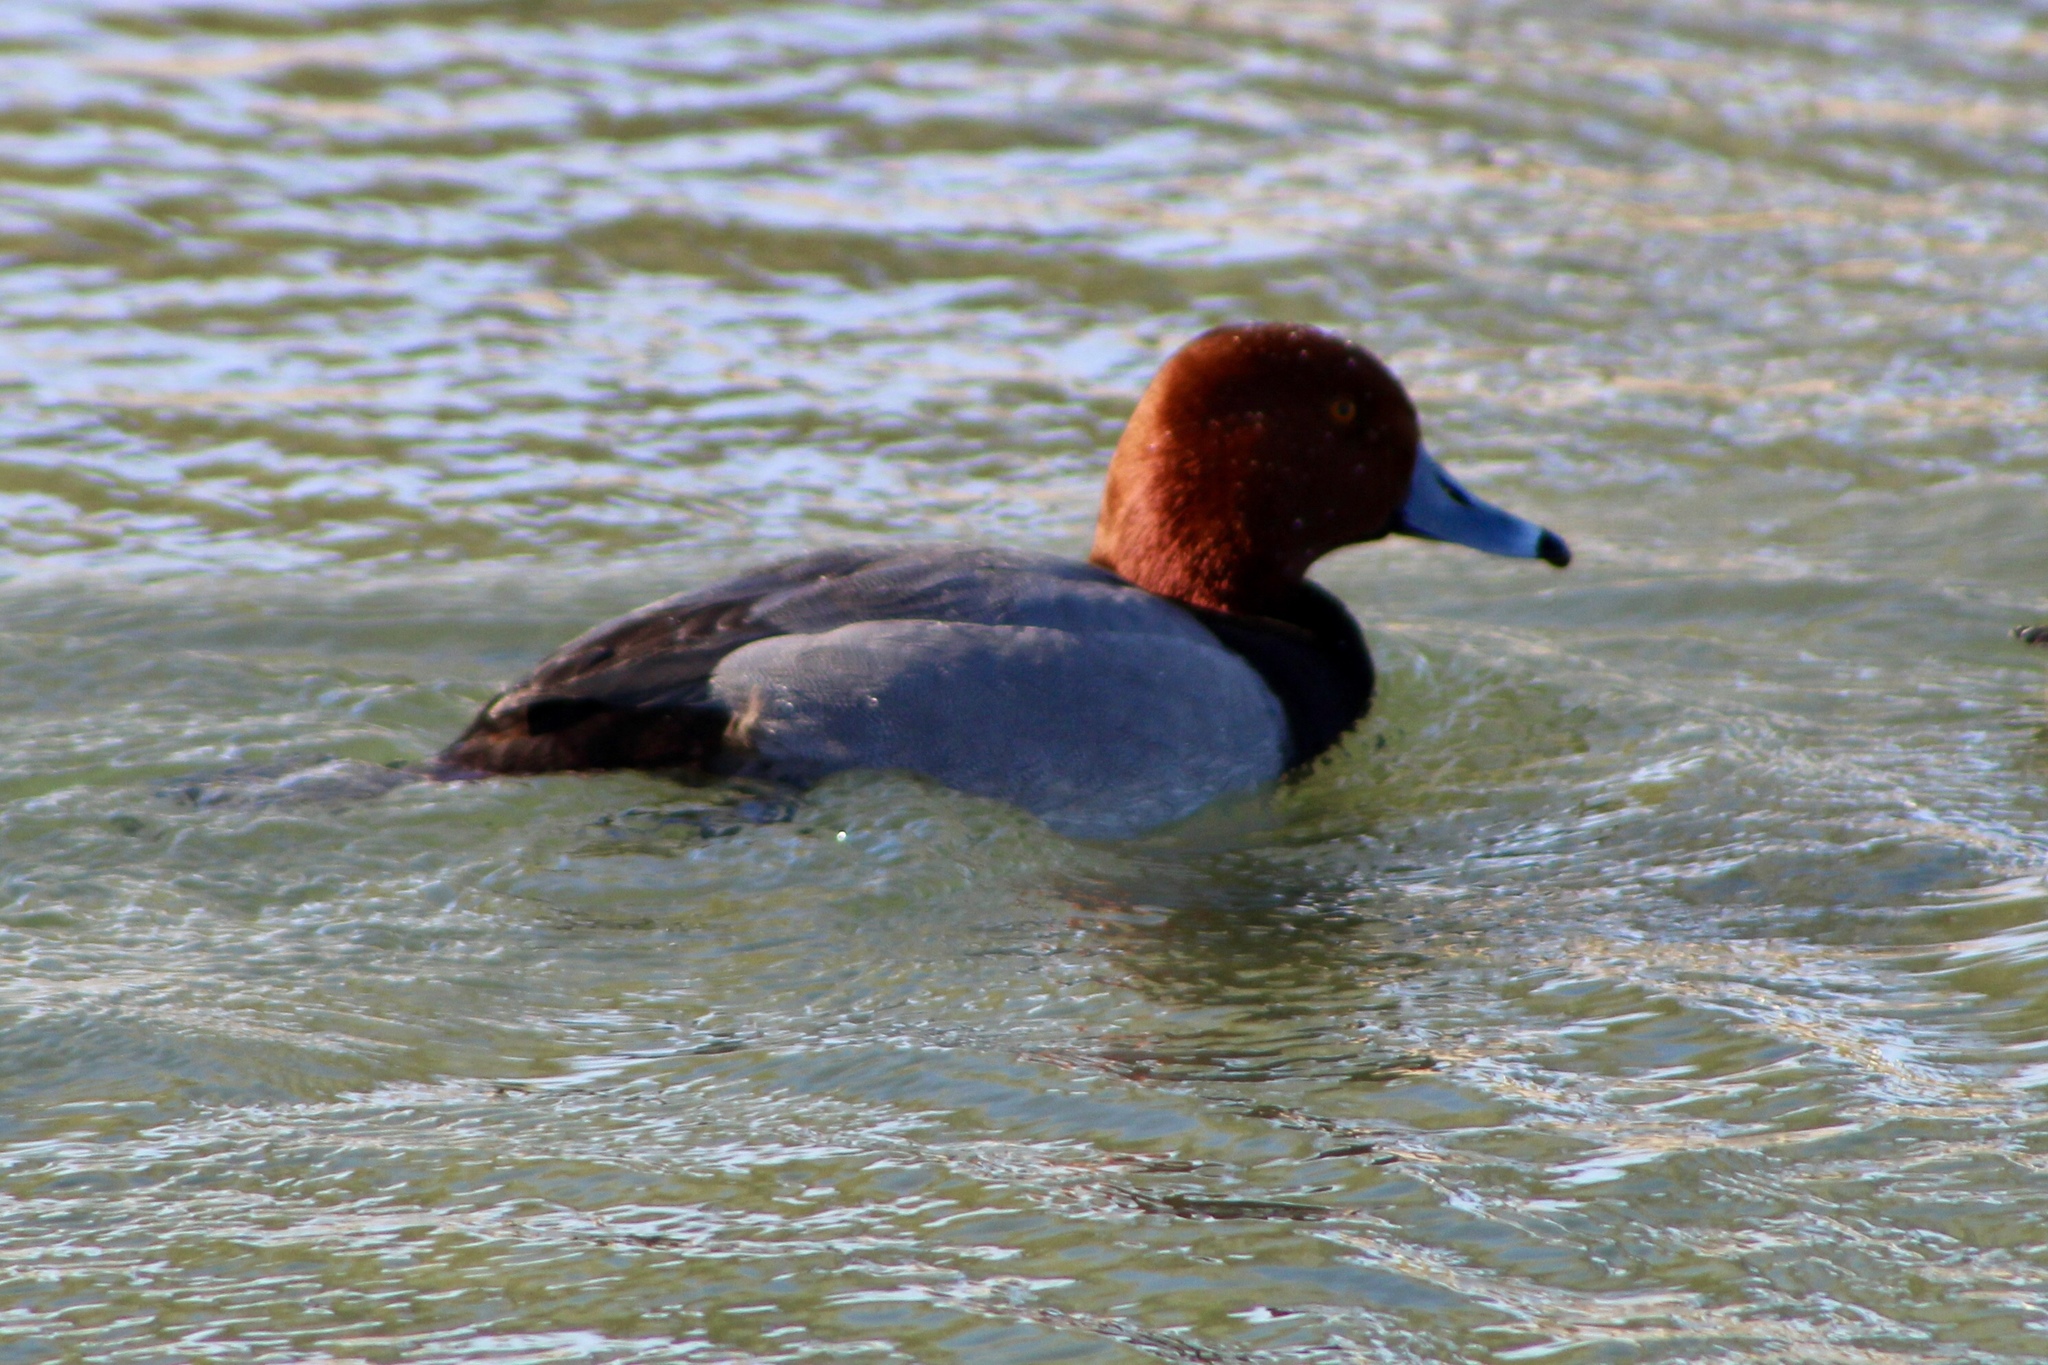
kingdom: Animalia
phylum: Chordata
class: Aves
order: Anseriformes
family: Anatidae
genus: Aythya
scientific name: Aythya americana
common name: Redhead
